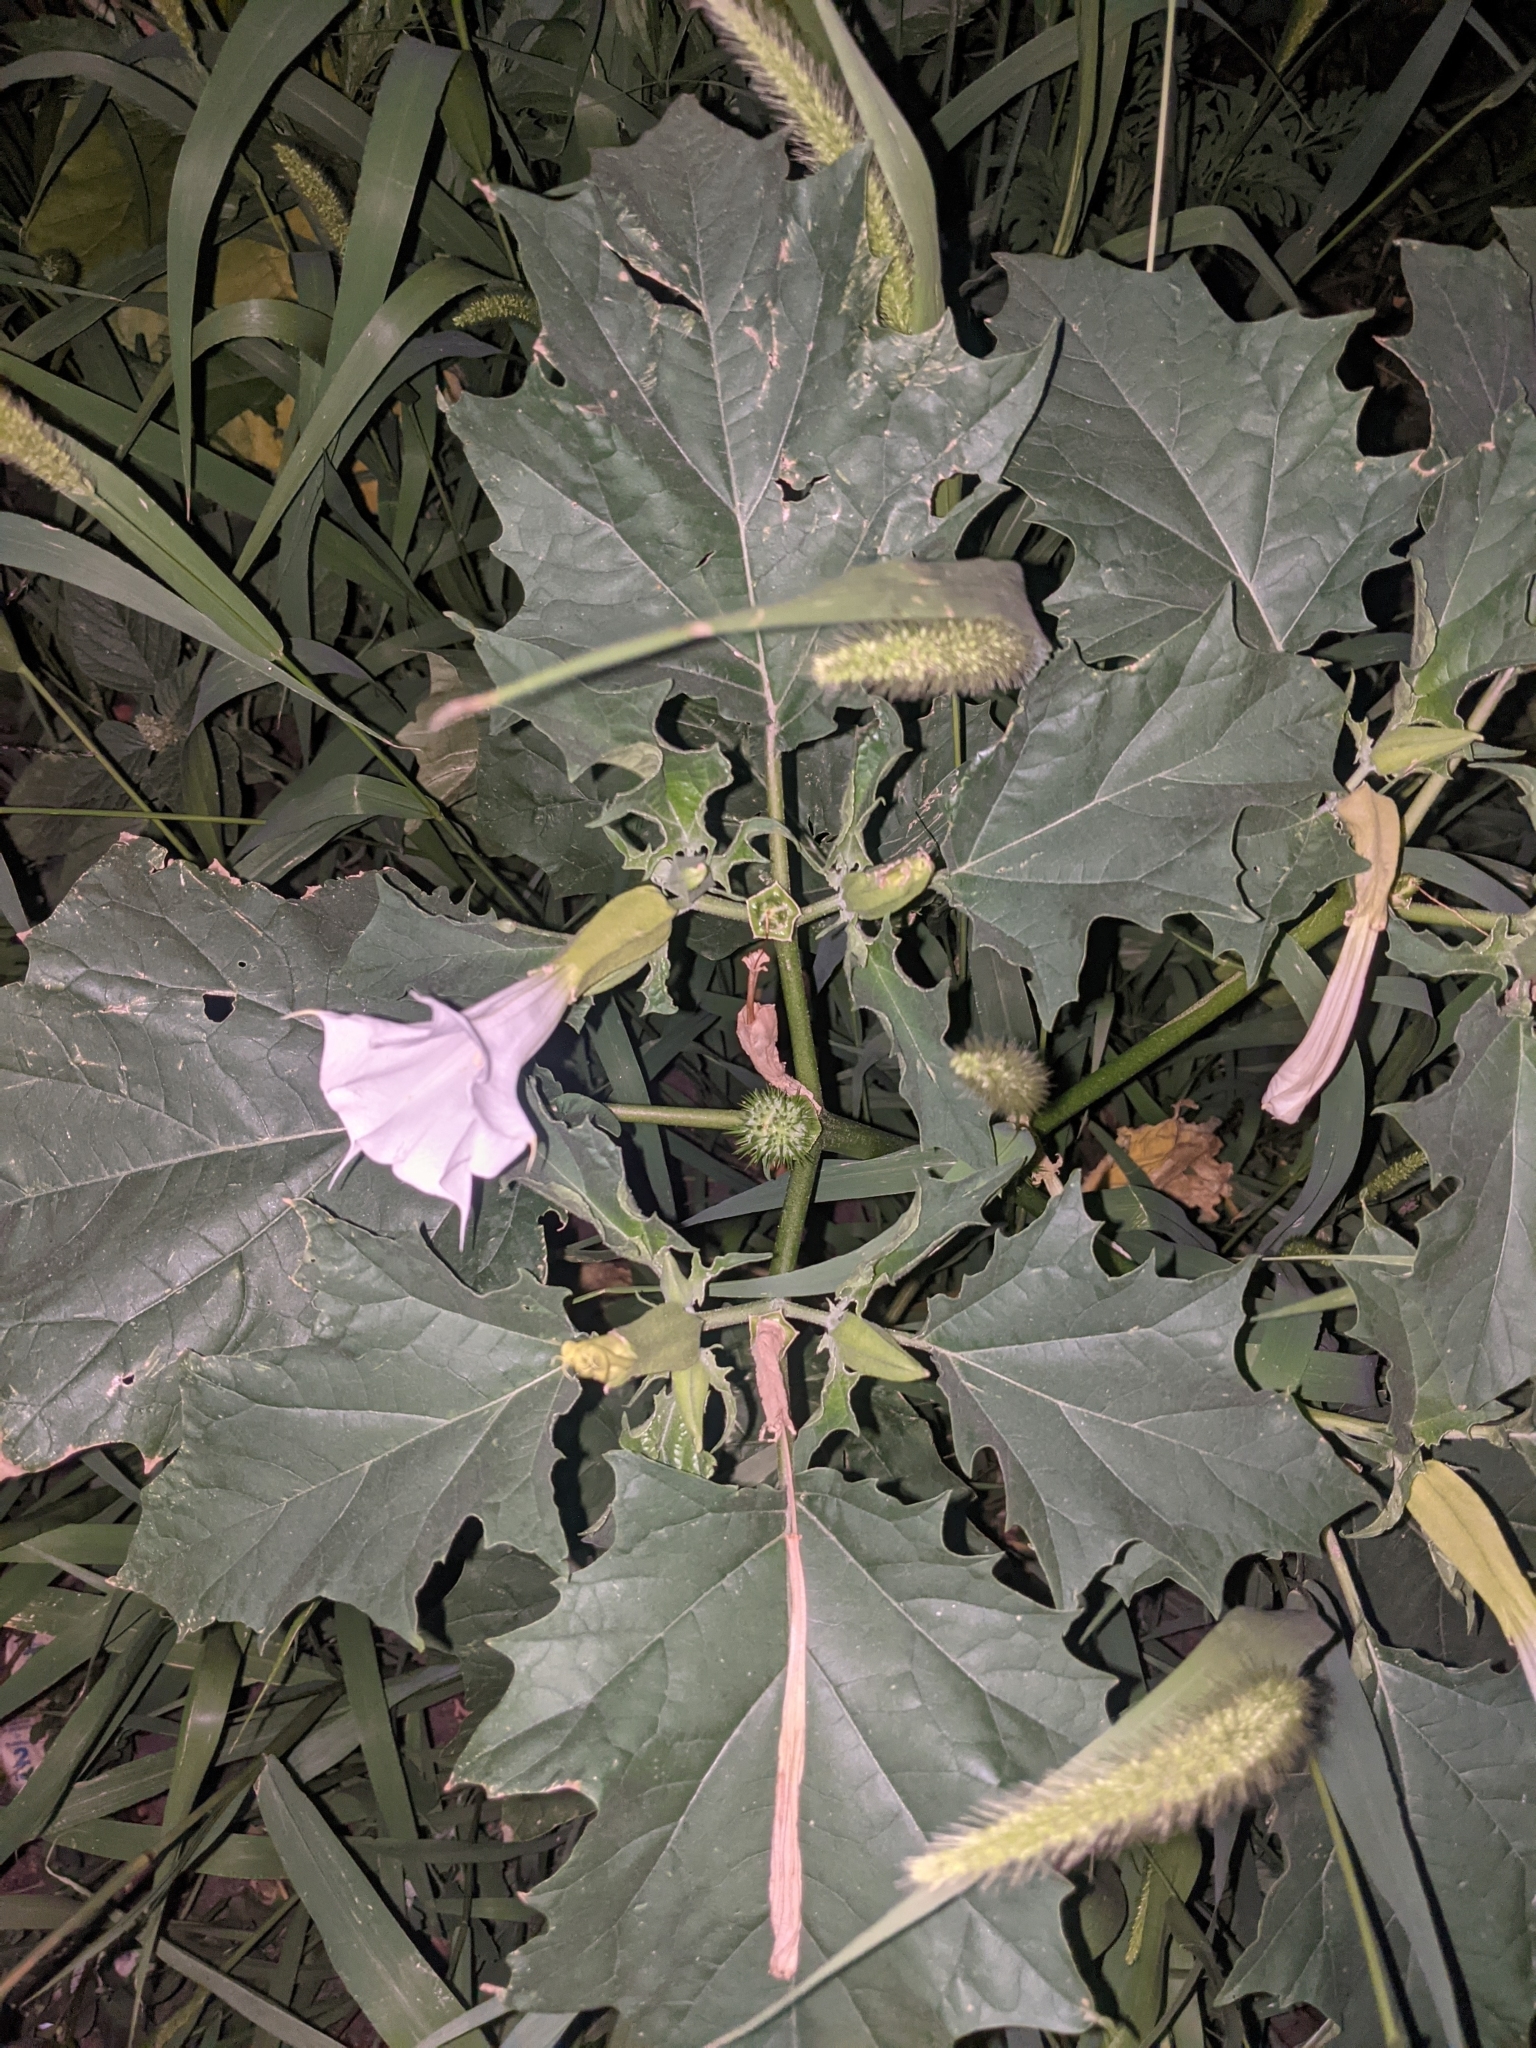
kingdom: Plantae
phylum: Tracheophyta
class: Magnoliopsida
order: Solanales
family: Solanaceae
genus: Datura
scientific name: Datura stramonium
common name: Thorn-apple
